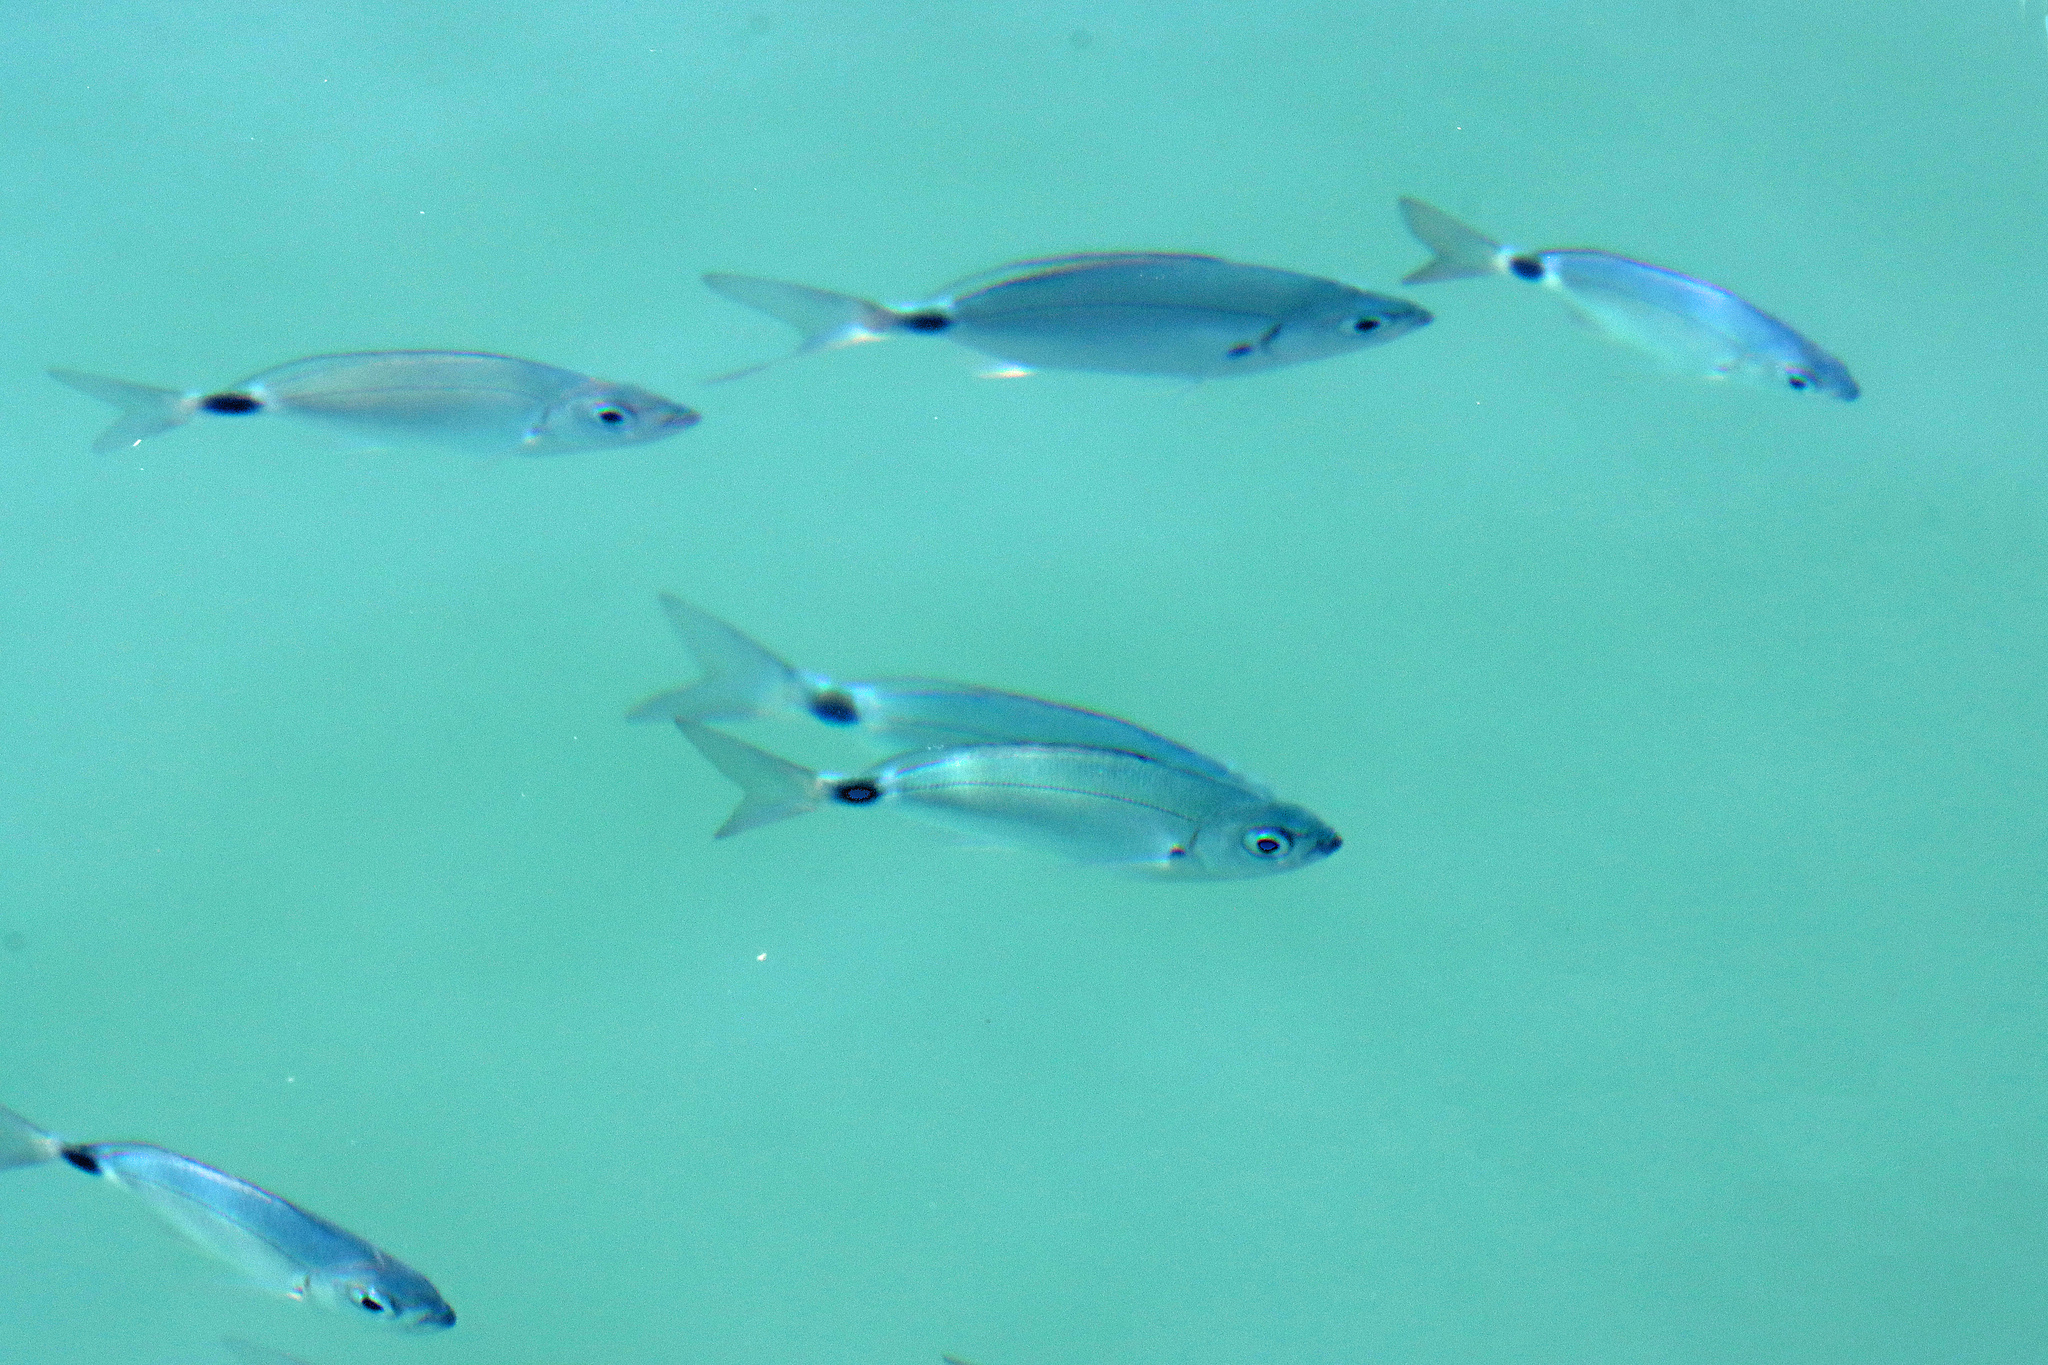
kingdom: Animalia
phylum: Chordata
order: Perciformes
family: Sparidae
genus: Oblada
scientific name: Oblada melanura
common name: Saddled seabream
